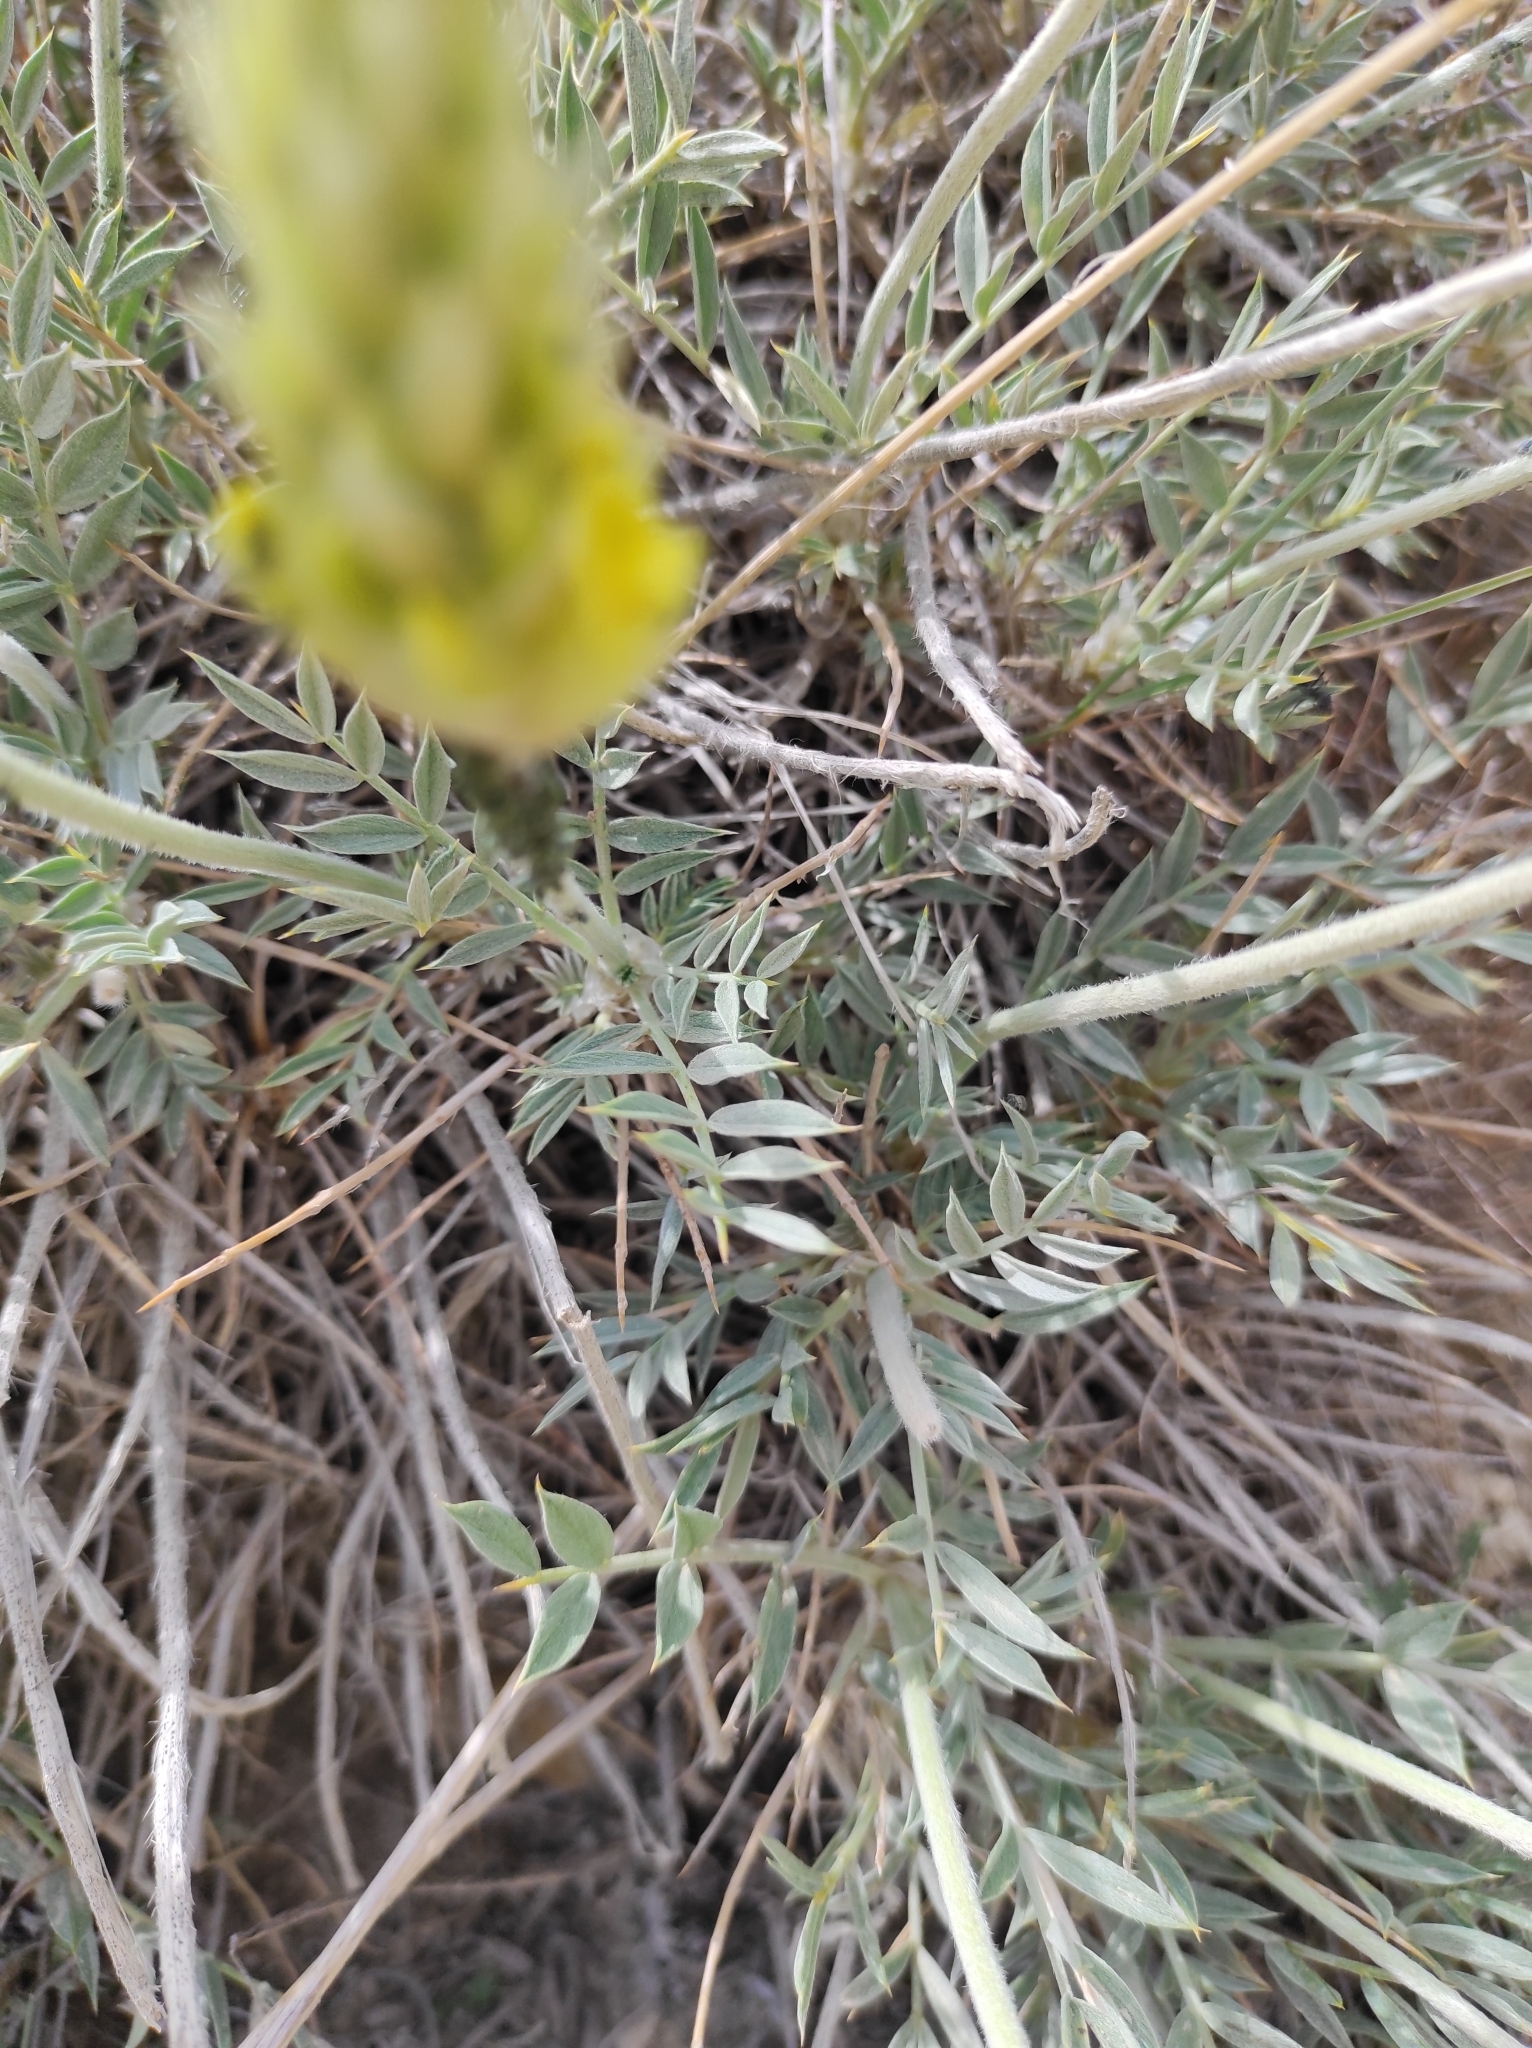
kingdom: Plantae
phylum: Tracheophyta
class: Magnoliopsida
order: Fabales
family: Fabaceae
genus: Astragalus
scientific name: Astragalus chrysostachys
